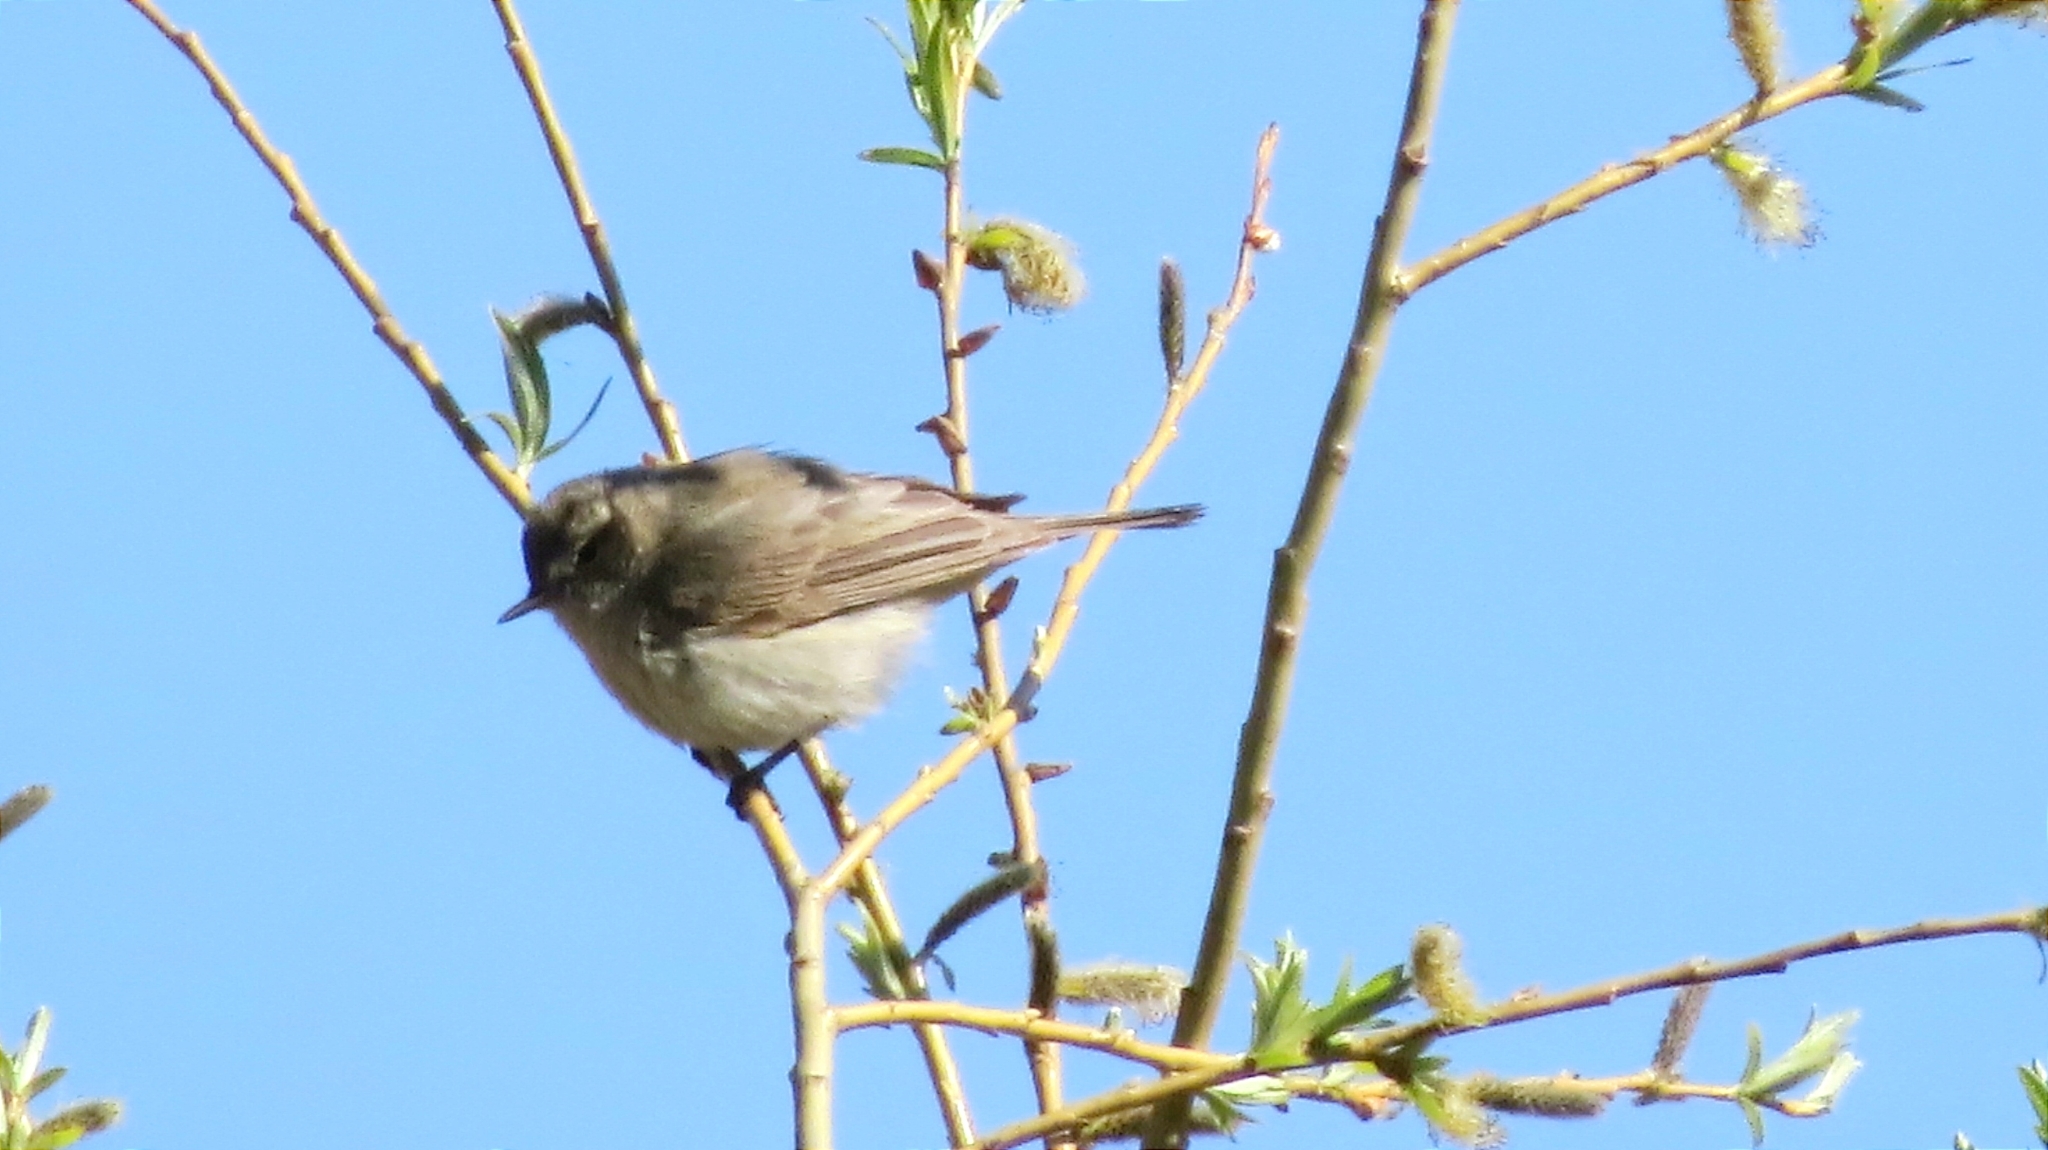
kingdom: Animalia
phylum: Chordata
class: Aves
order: Passeriformes
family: Phylloscopidae
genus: Phylloscopus
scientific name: Phylloscopus collybita
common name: Common chiffchaff
